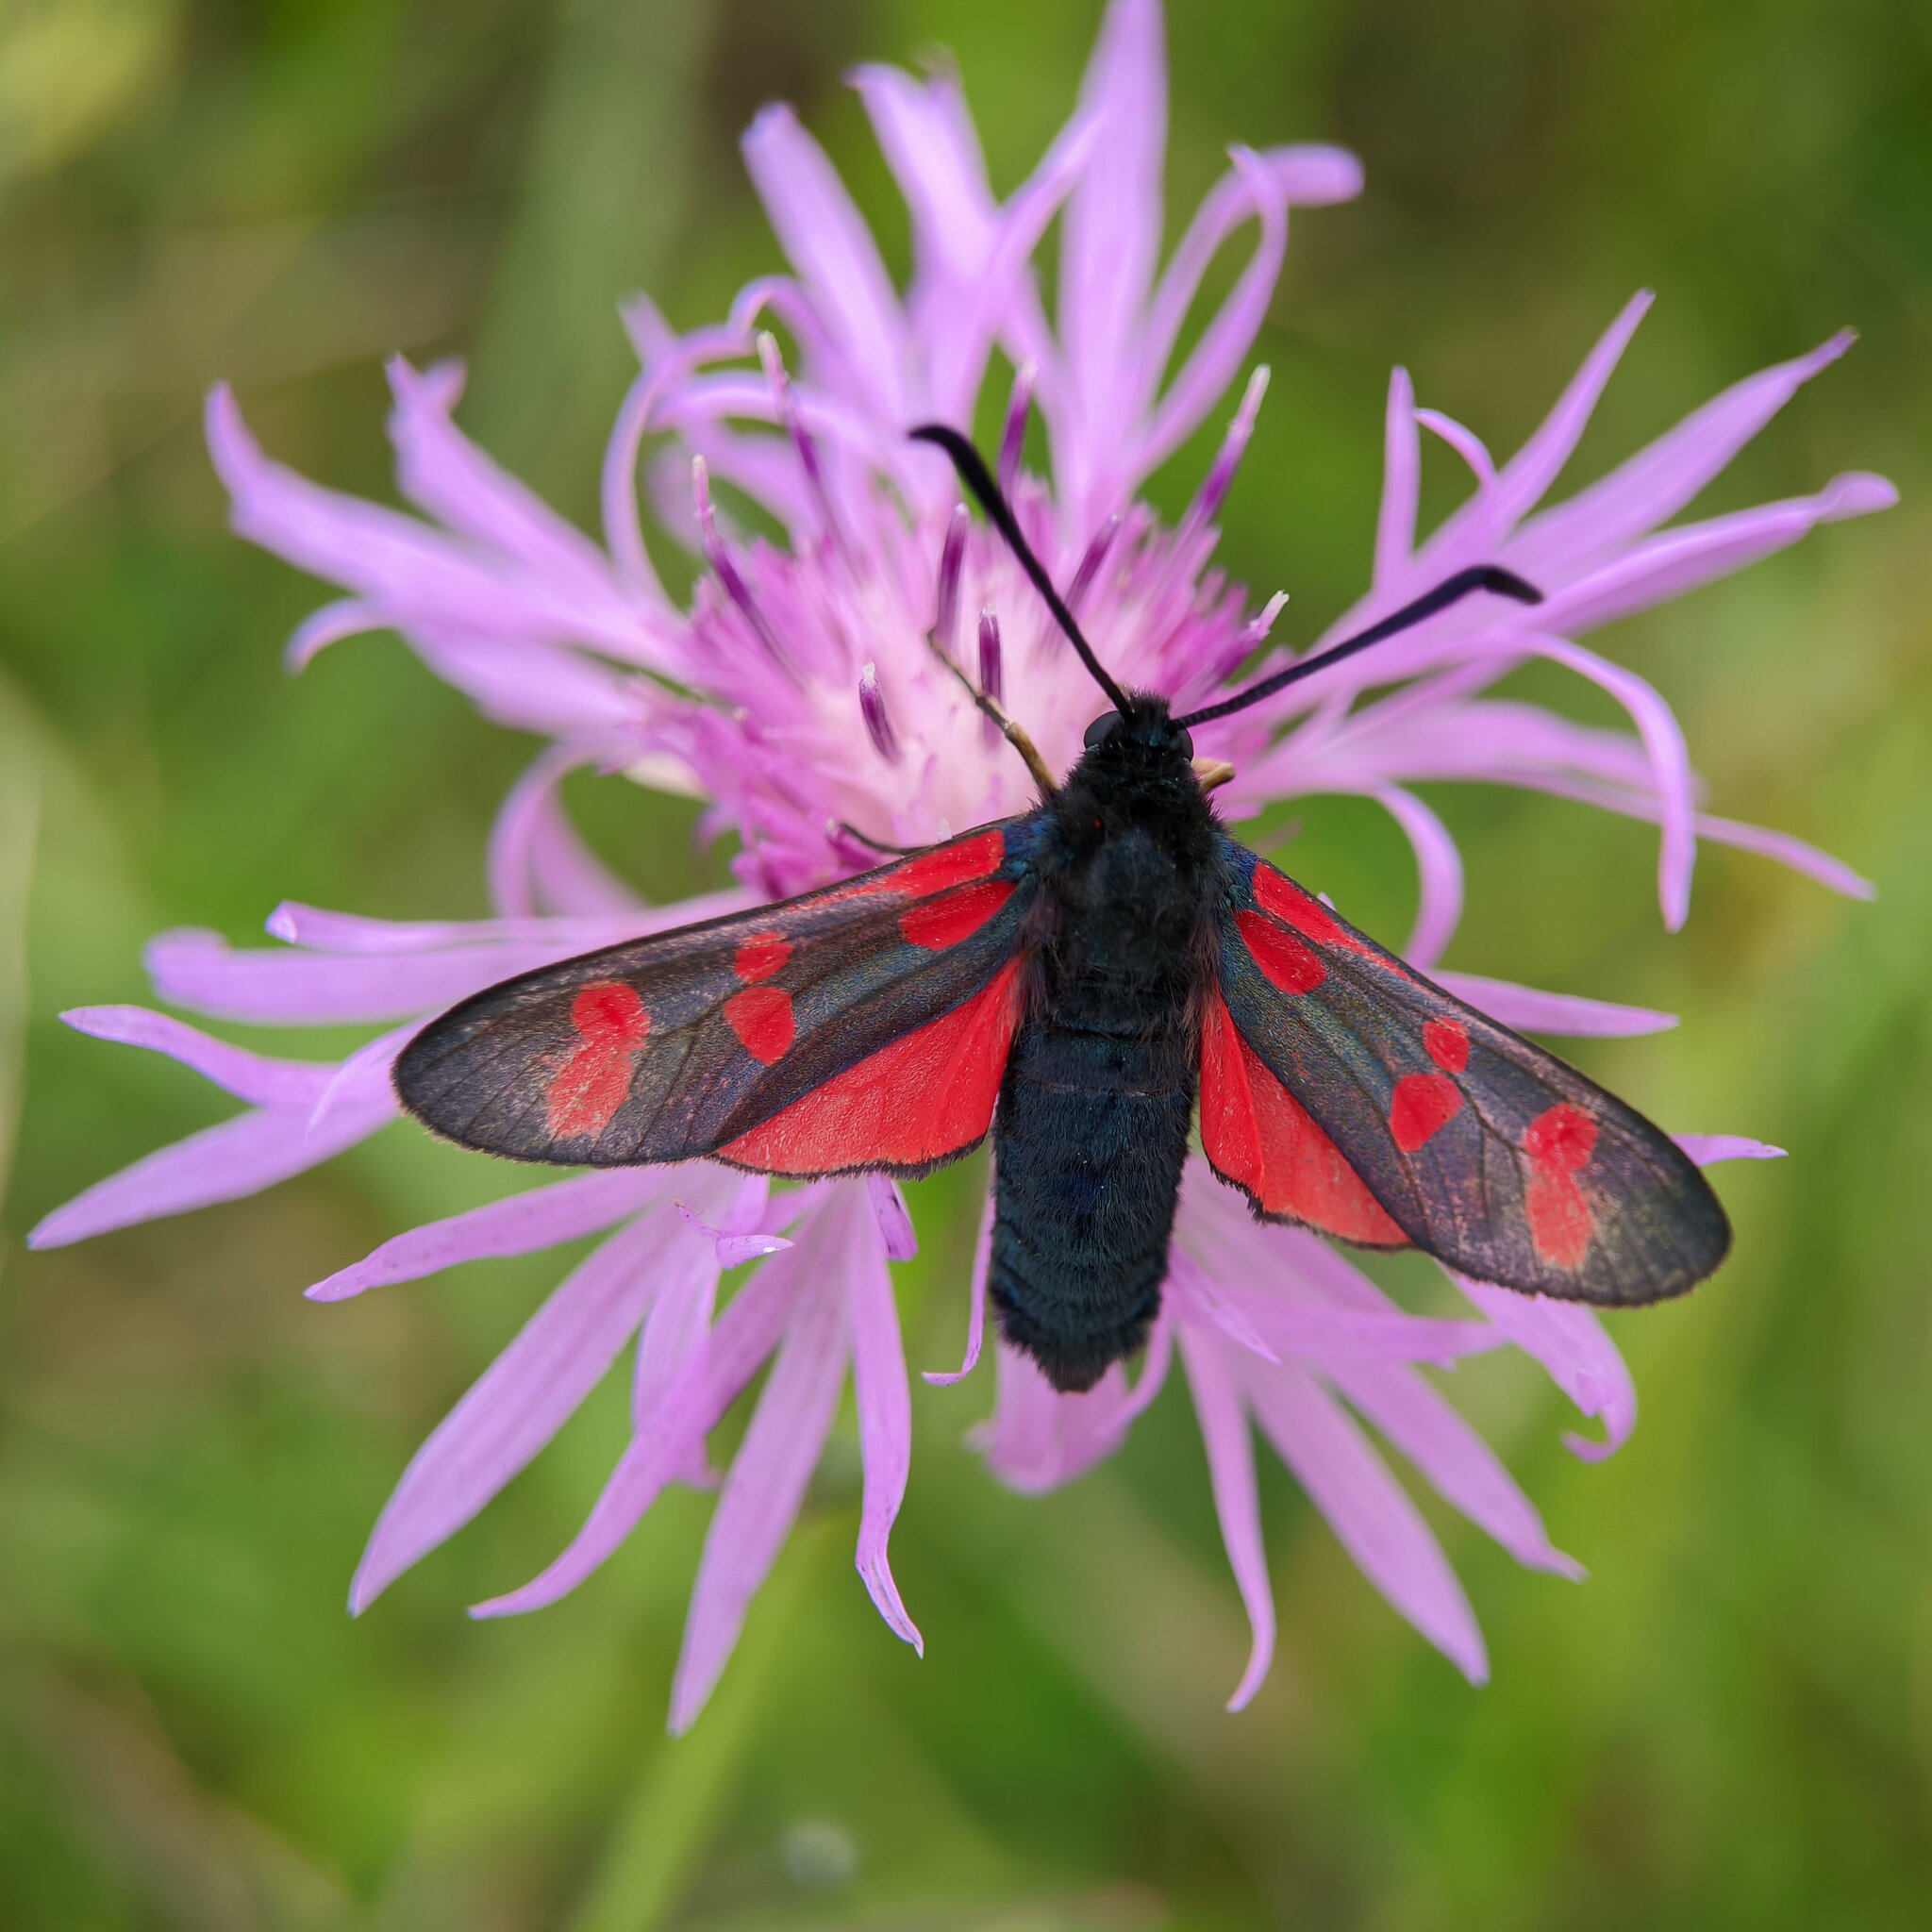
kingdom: Animalia
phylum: Arthropoda
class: Insecta
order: Lepidoptera
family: Zygaenidae
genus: Zygaena
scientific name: Zygaena filipendulae
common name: Six-spot burnet
